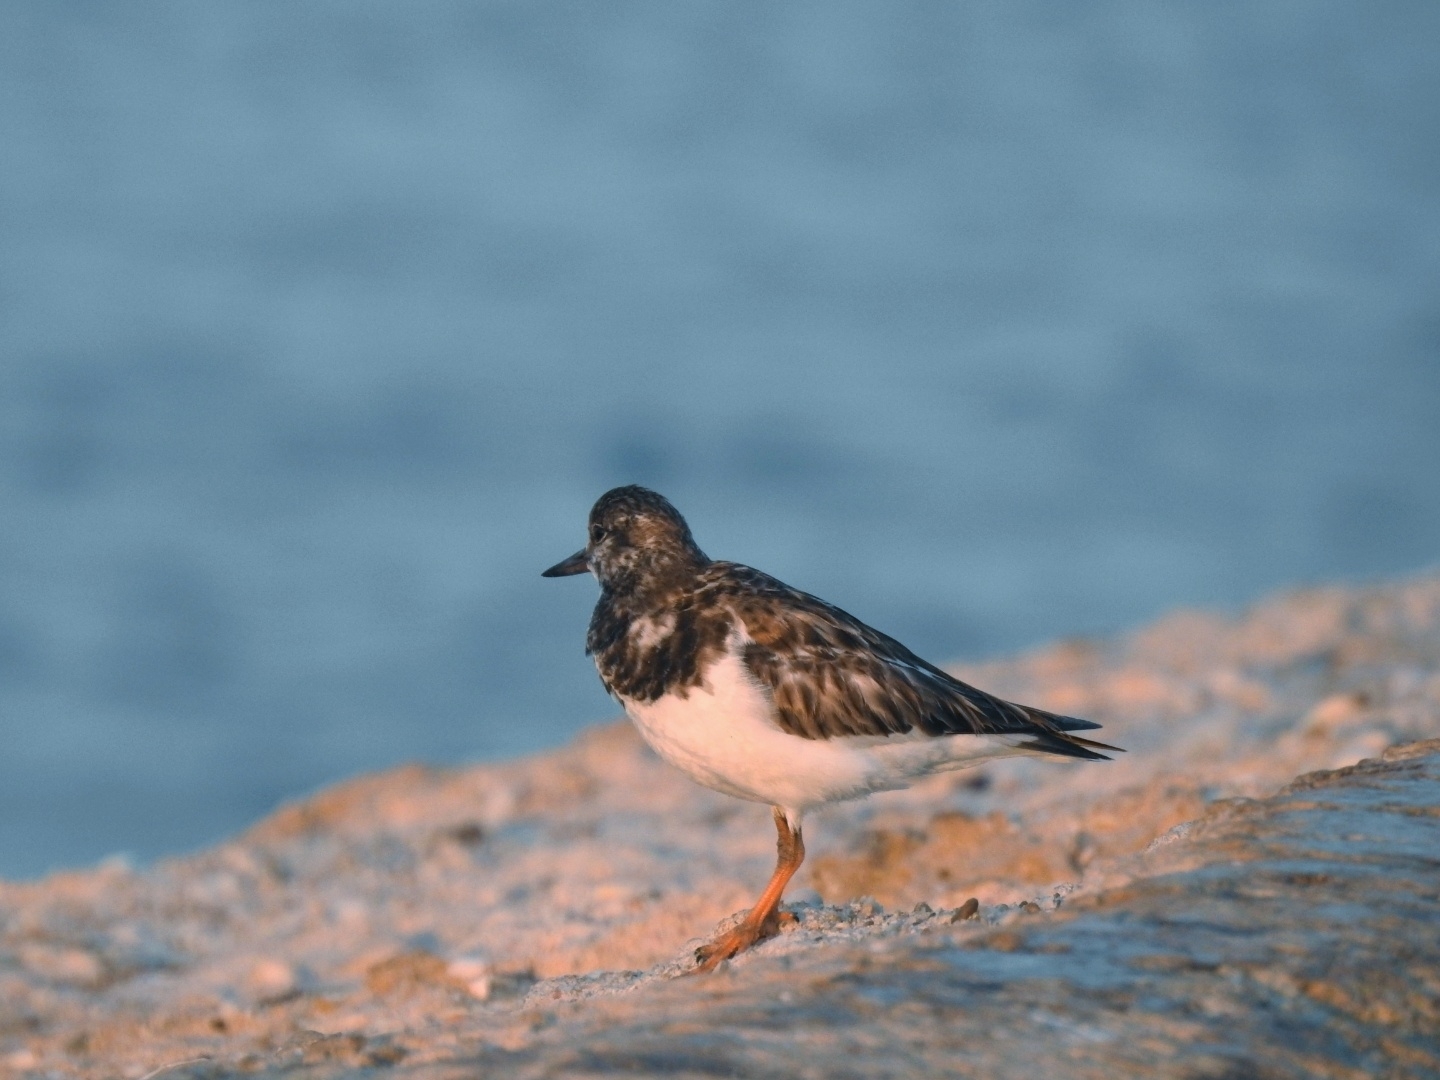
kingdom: Animalia
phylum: Chordata
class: Aves
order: Charadriiformes
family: Scolopacidae
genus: Arenaria
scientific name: Arenaria interpres
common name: Ruddy turnstone
